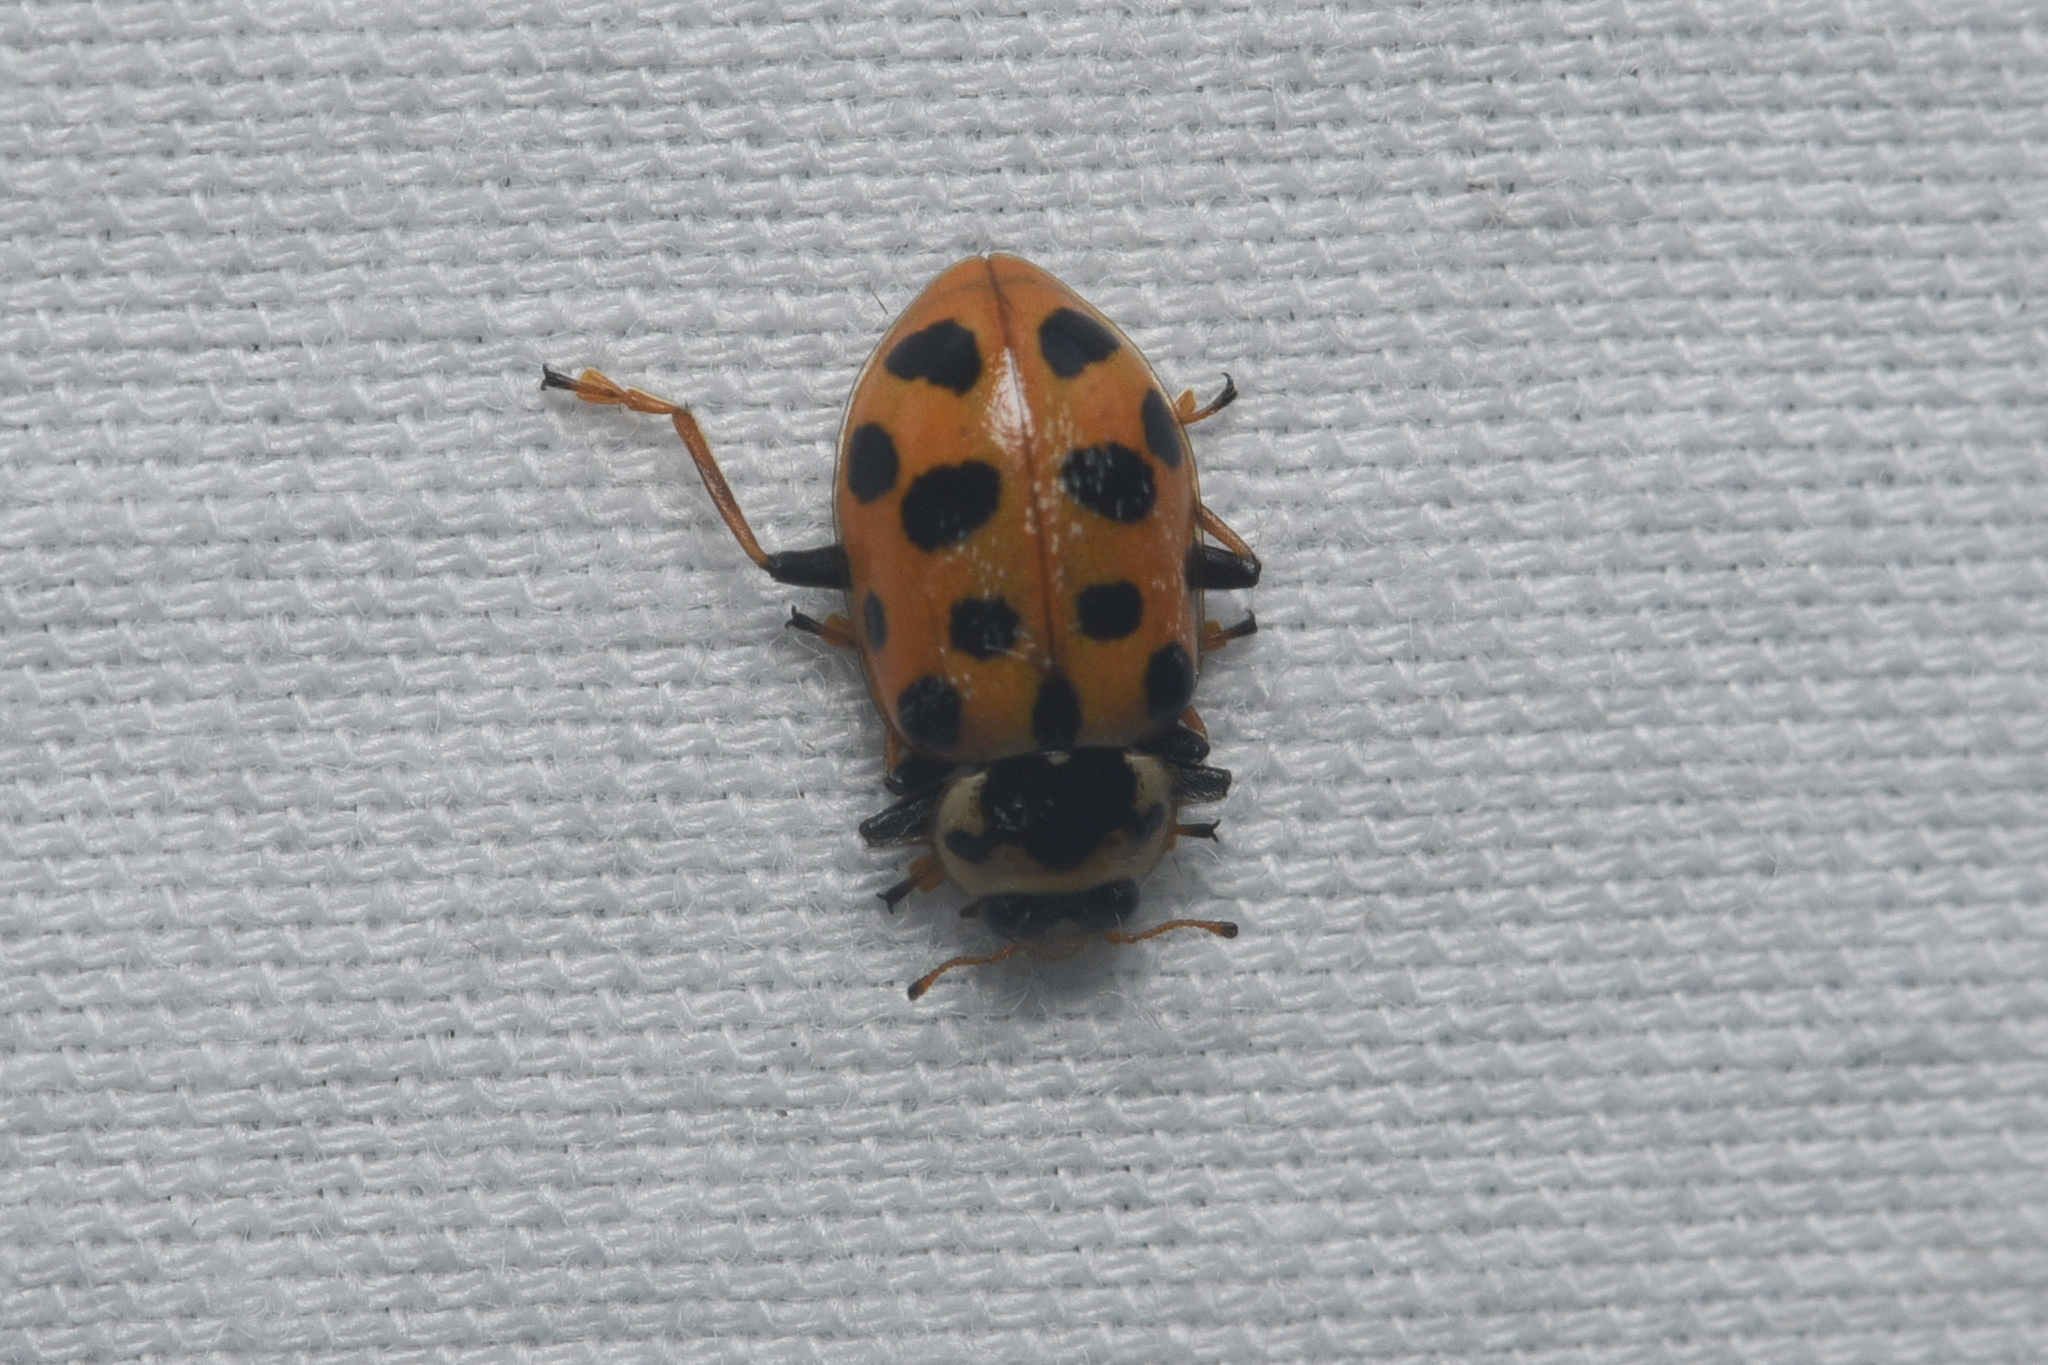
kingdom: Animalia
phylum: Arthropoda
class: Insecta
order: Coleoptera
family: Coccinellidae
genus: Hippodamia
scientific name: Hippodamia tredecimpunctata
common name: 13-spot ladybird
